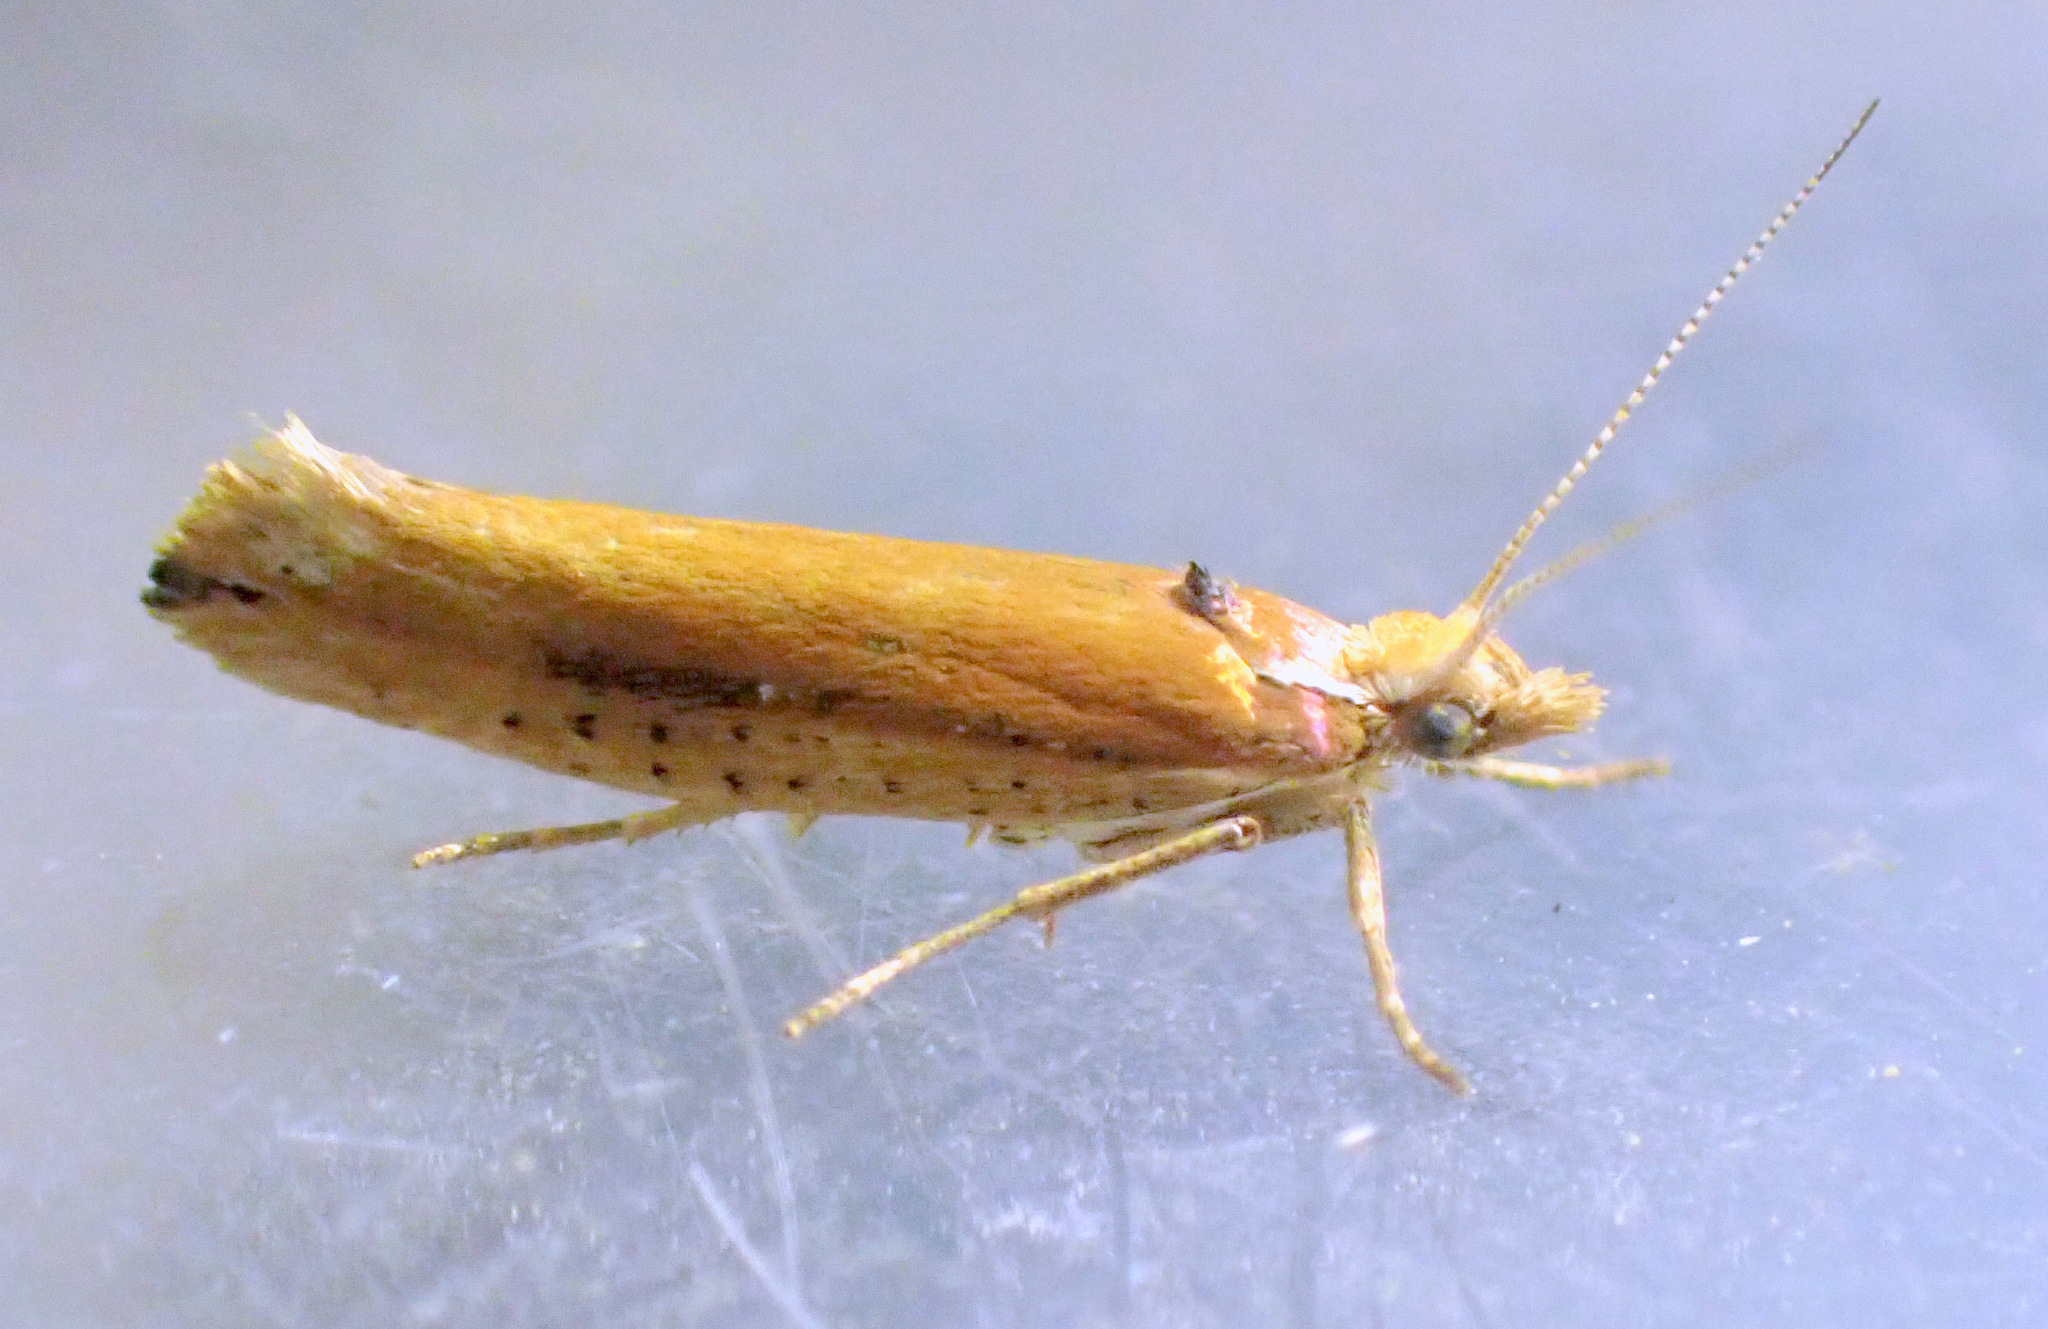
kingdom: Animalia
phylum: Arthropoda
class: Insecta
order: Lepidoptera
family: Ypsolophidae
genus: Ypsolopha
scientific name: Ypsolopha parenthesella
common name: White-shouldered smudge
